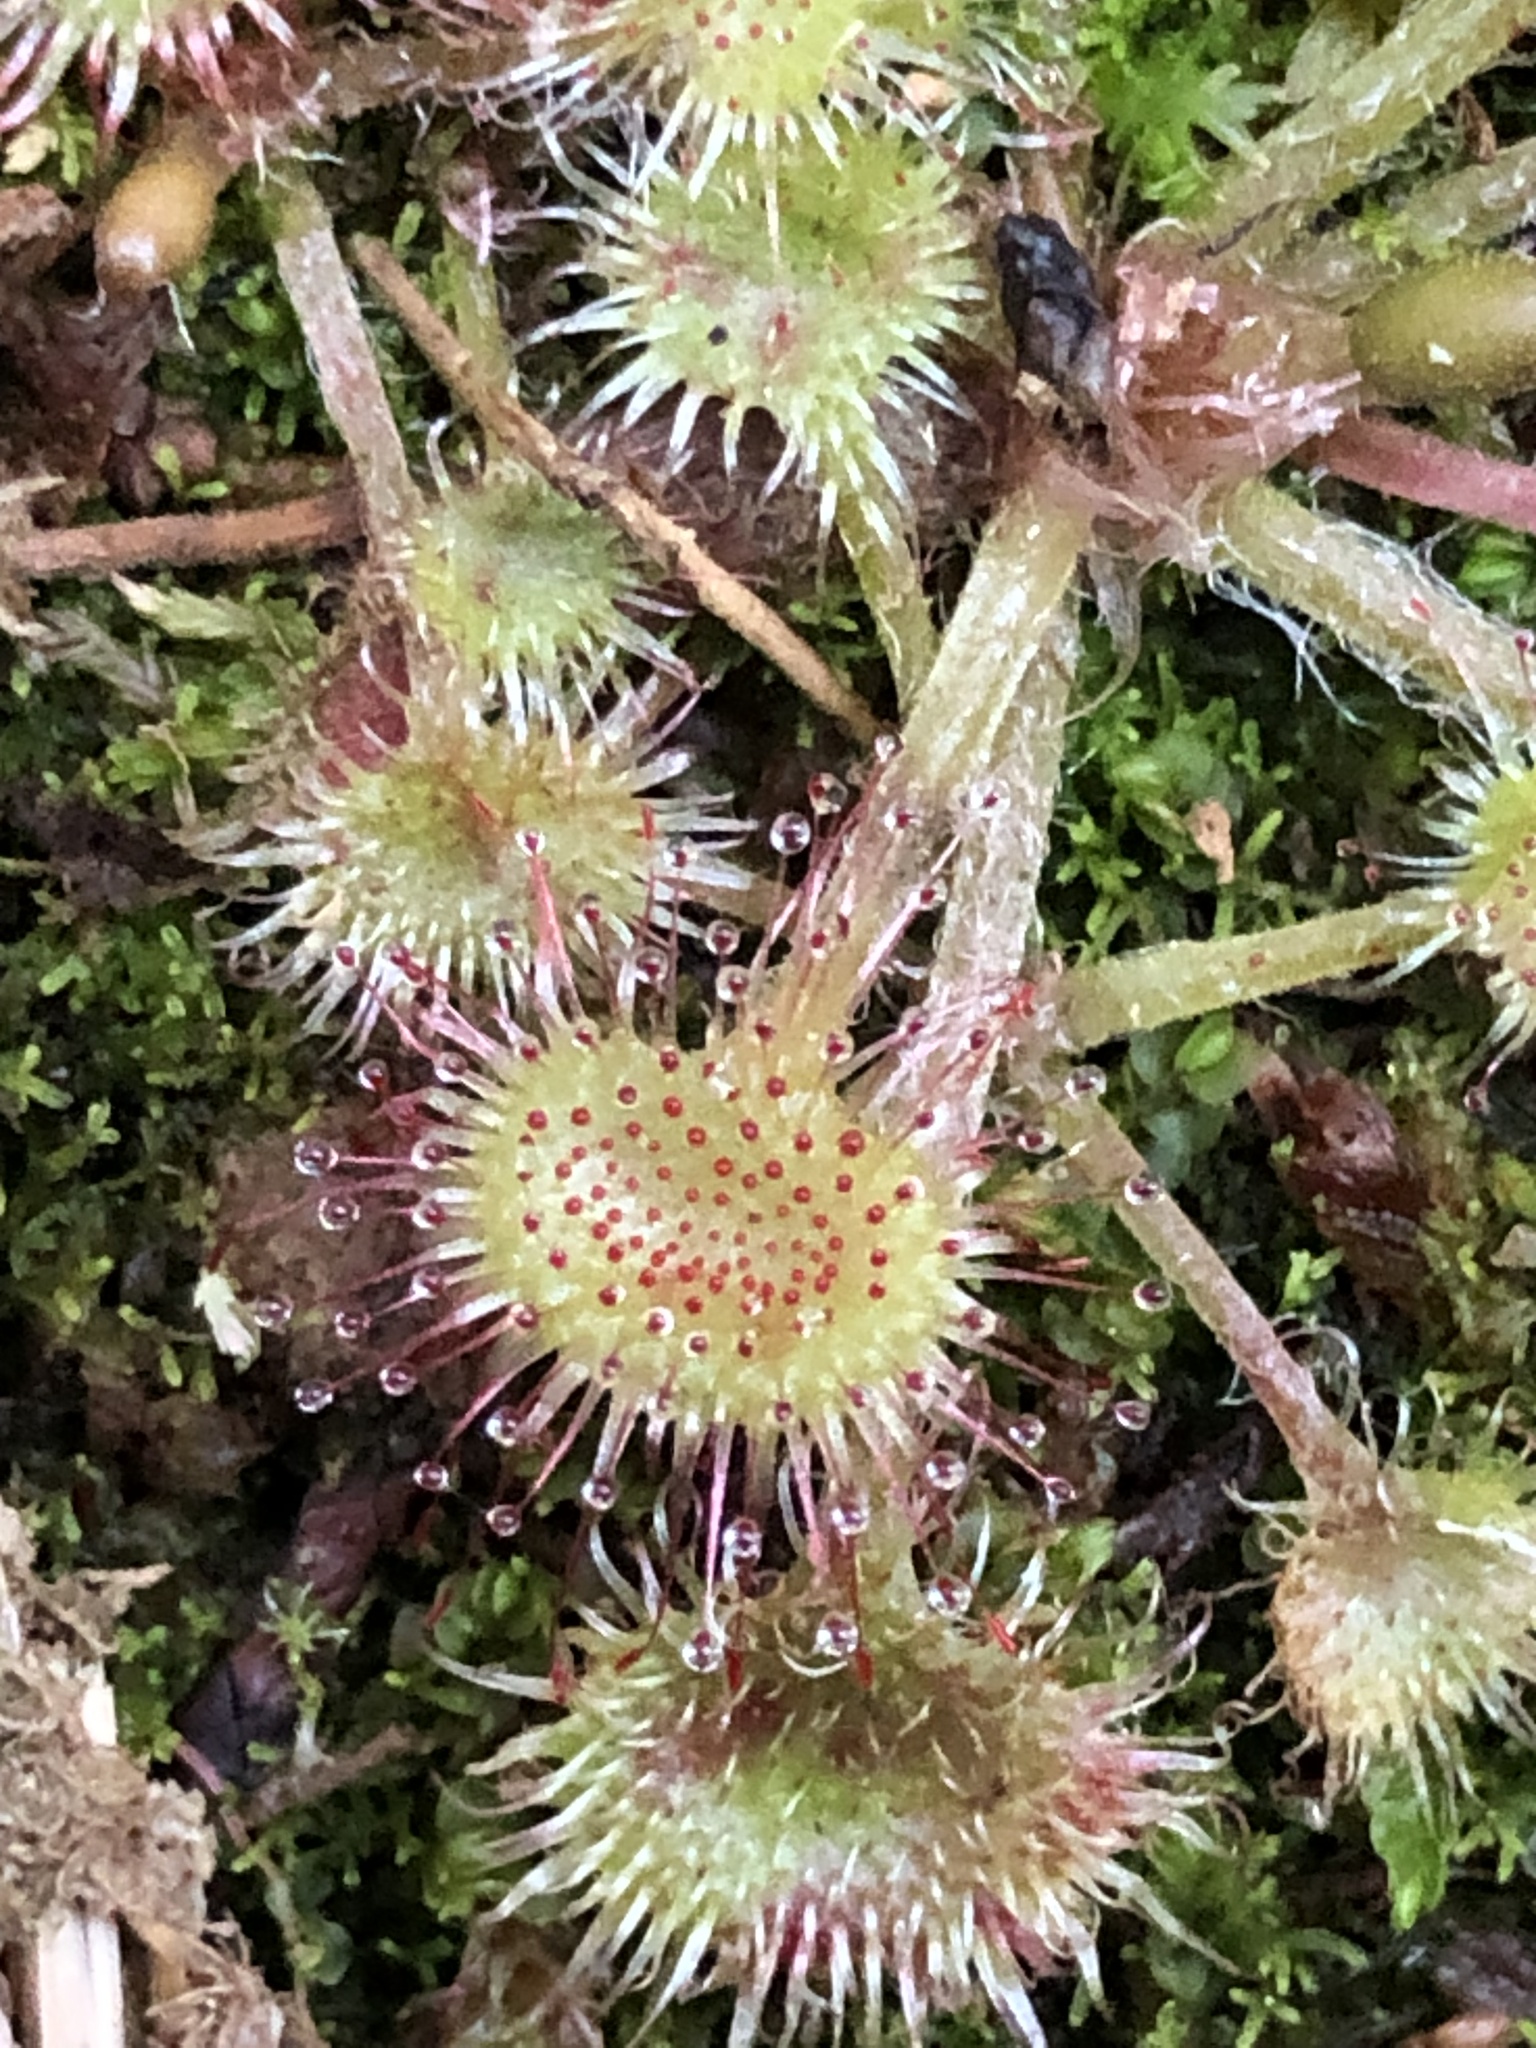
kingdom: Plantae
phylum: Tracheophyta
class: Magnoliopsida
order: Caryophyllales
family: Droseraceae
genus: Drosera
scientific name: Drosera rotundifolia
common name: Round-leaved sundew
